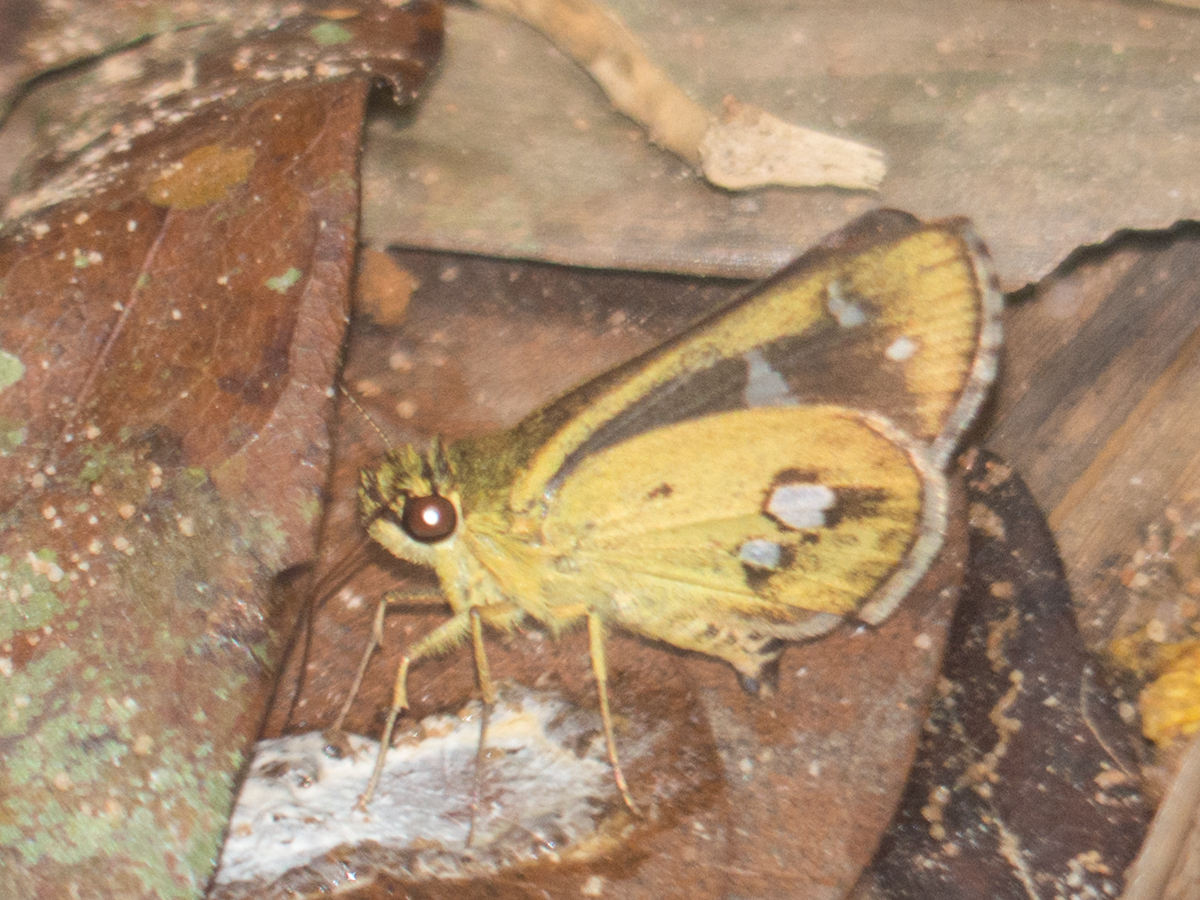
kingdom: Animalia
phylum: Arthropoda
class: Insecta
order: Lepidoptera
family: Hesperiidae
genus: Scobura
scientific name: Scobura isota
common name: Swinhoe's forest bob
